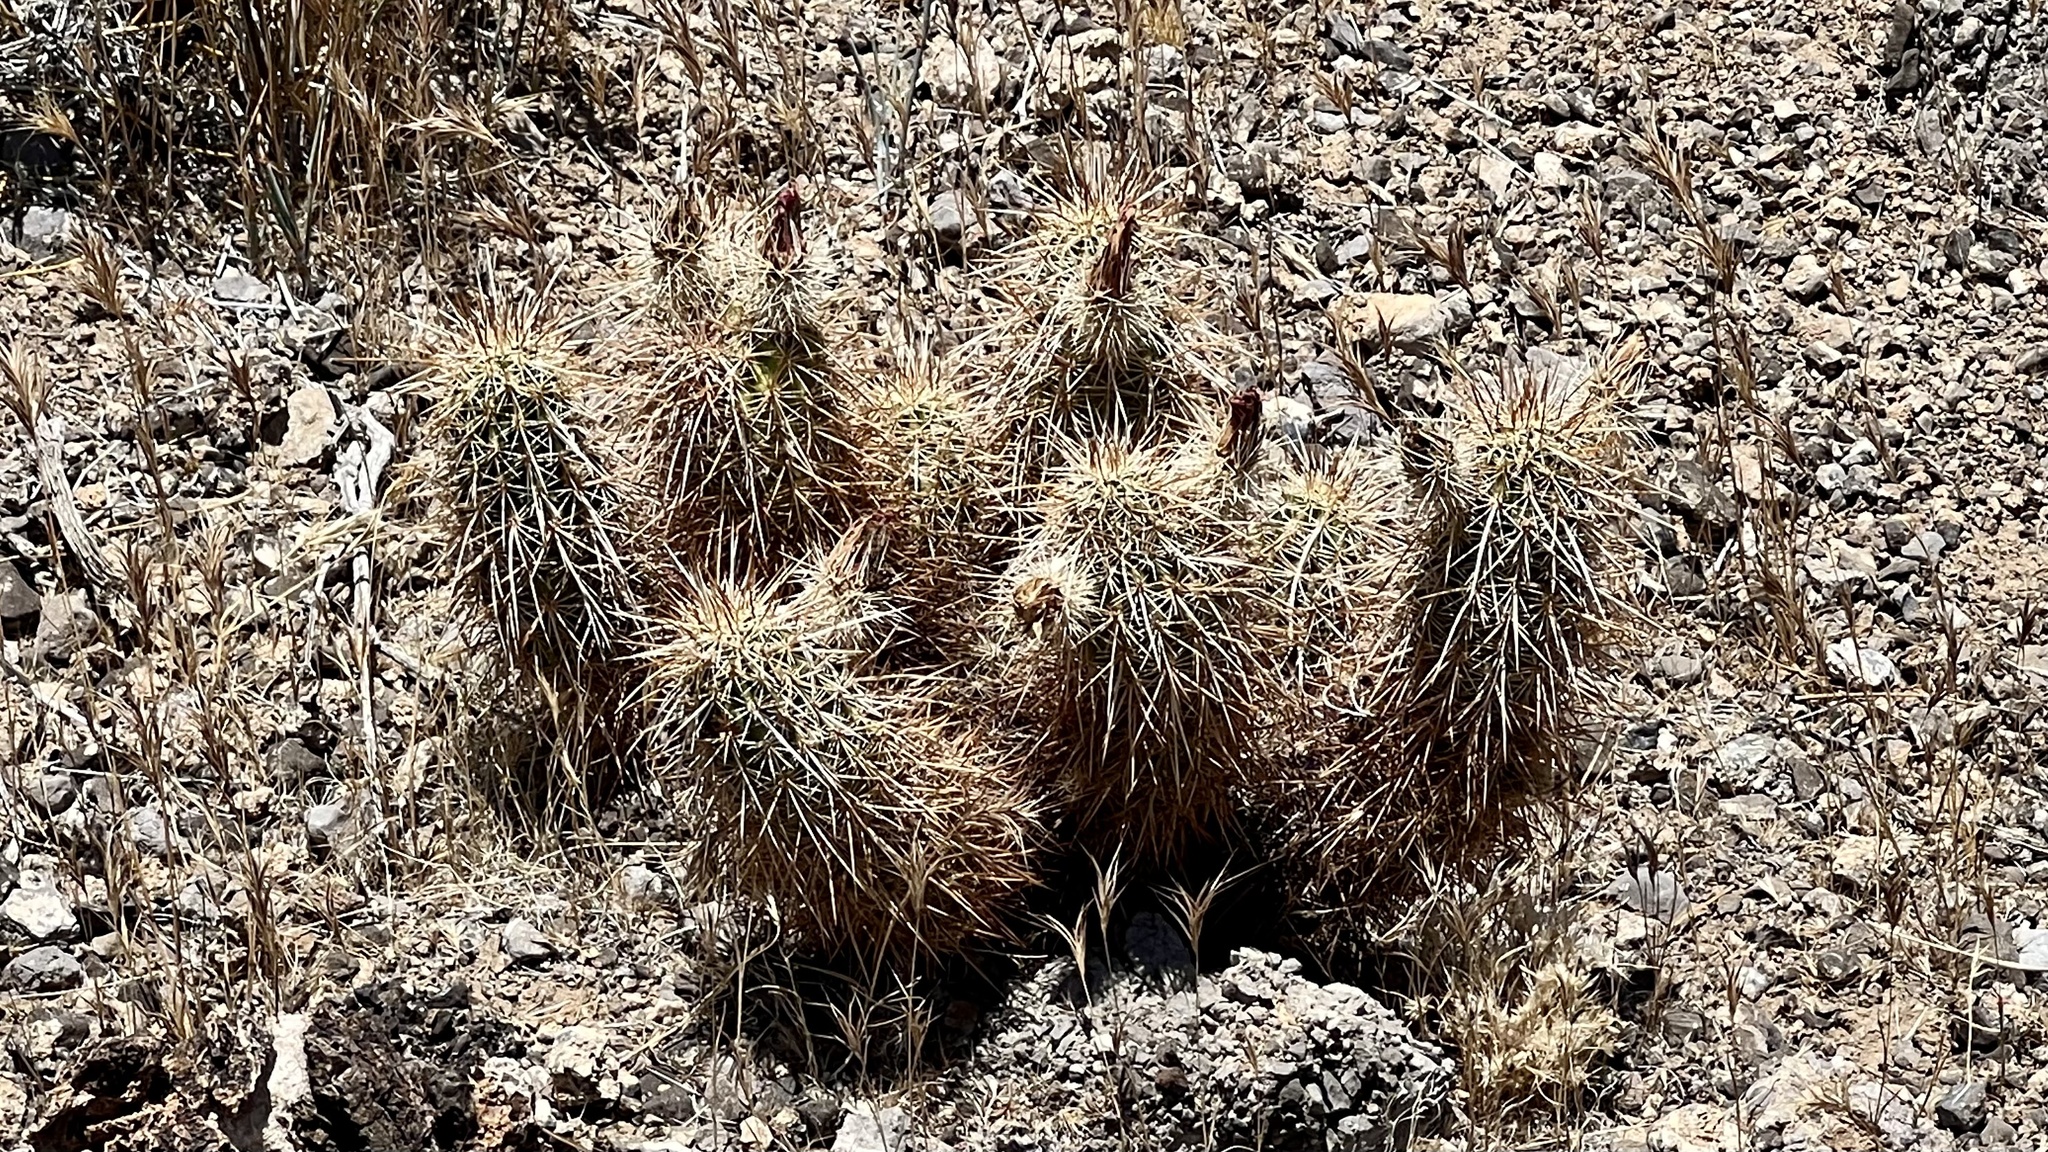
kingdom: Plantae
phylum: Tracheophyta
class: Magnoliopsida
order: Caryophyllales
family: Cactaceae
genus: Echinocereus
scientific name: Echinocereus engelmannii
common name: Engelmann's hedgehog cactus
